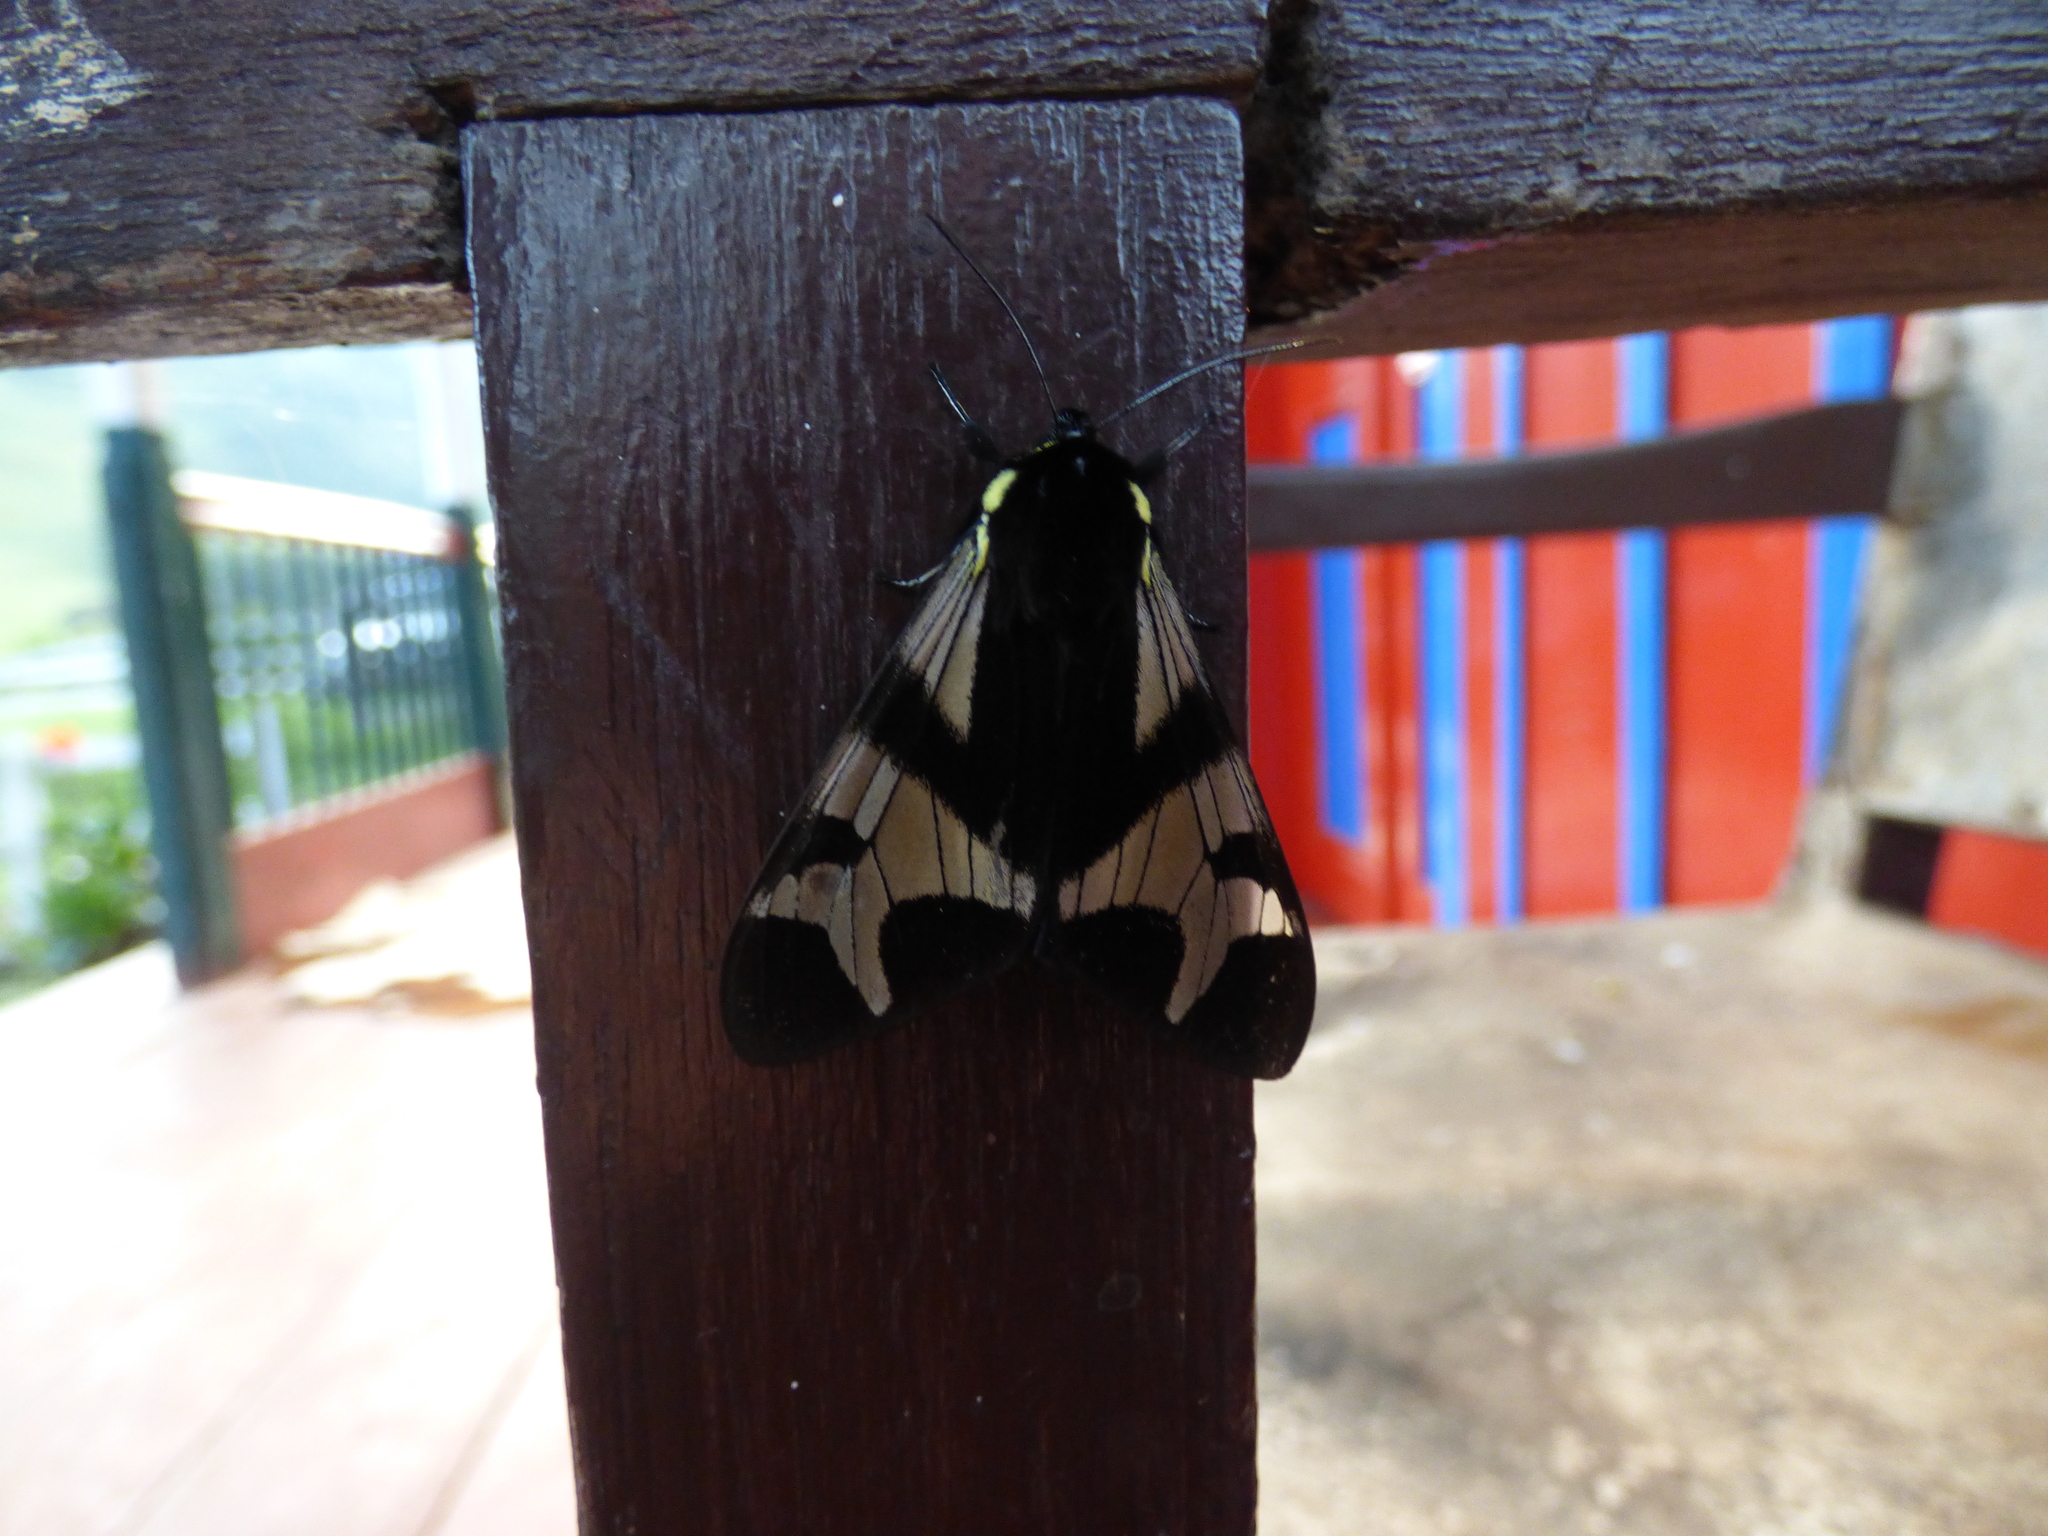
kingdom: Animalia
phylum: Arthropoda
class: Insecta
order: Lepidoptera
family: Erebidae
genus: Dysschema
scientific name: Dysschema arema
